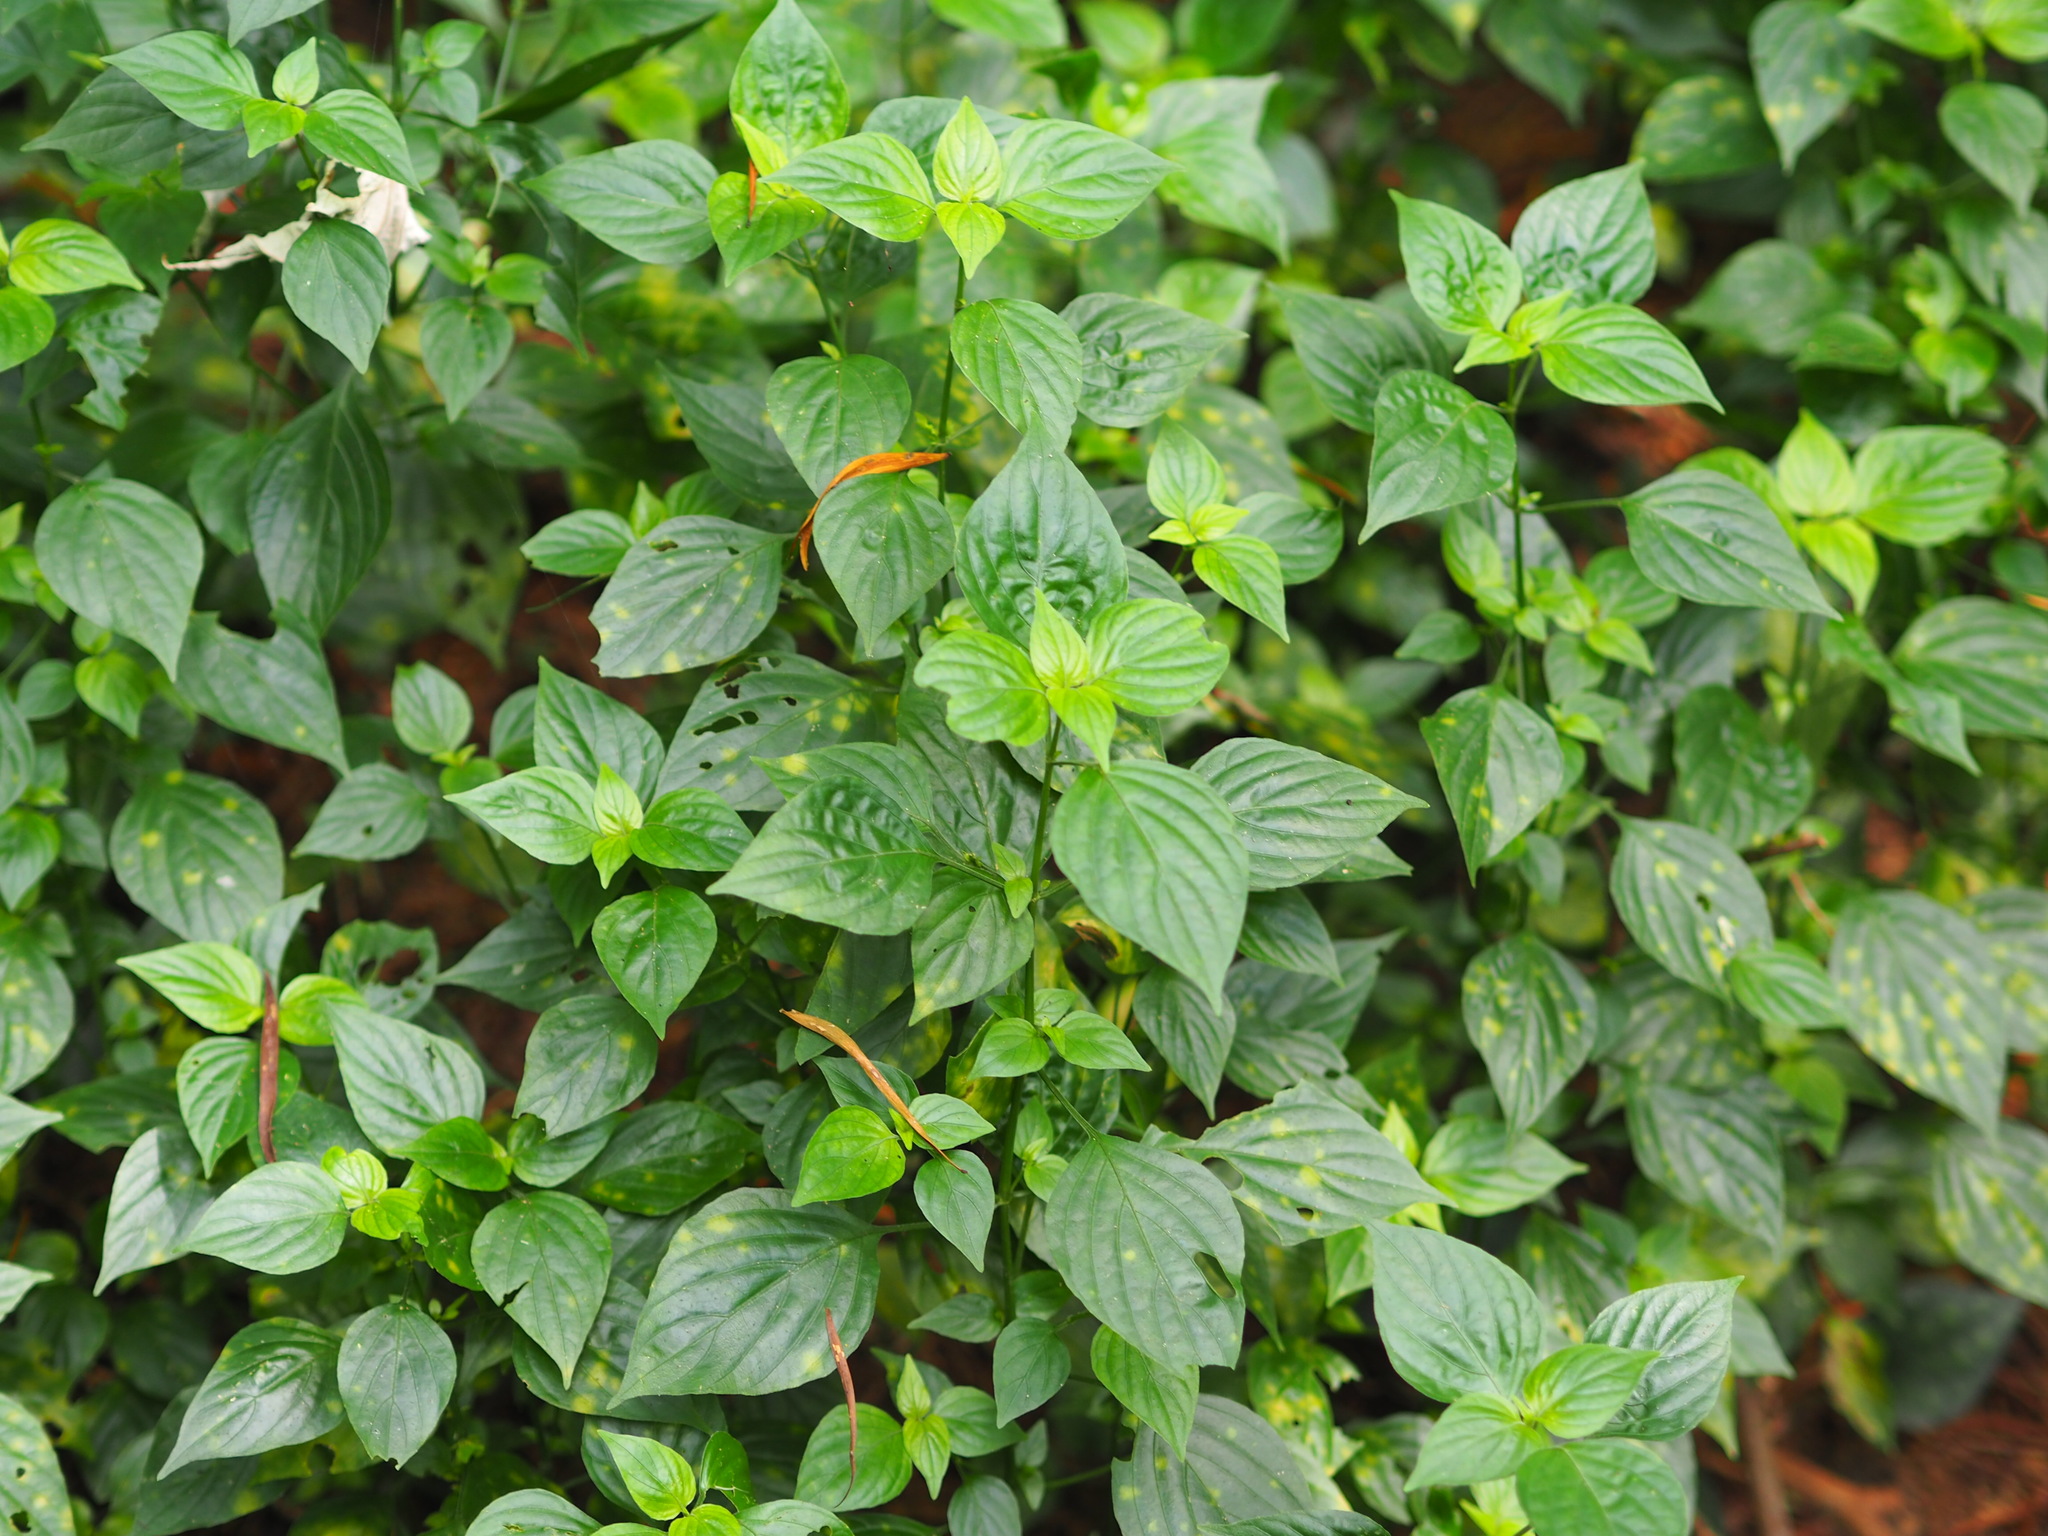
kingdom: Plantae
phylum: Tracheophyta
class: Magnoliopsida
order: Lamiales
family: Acanthaceae
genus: Dicliptera
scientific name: Dicliptera chinensis
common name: Chinese foldwing
